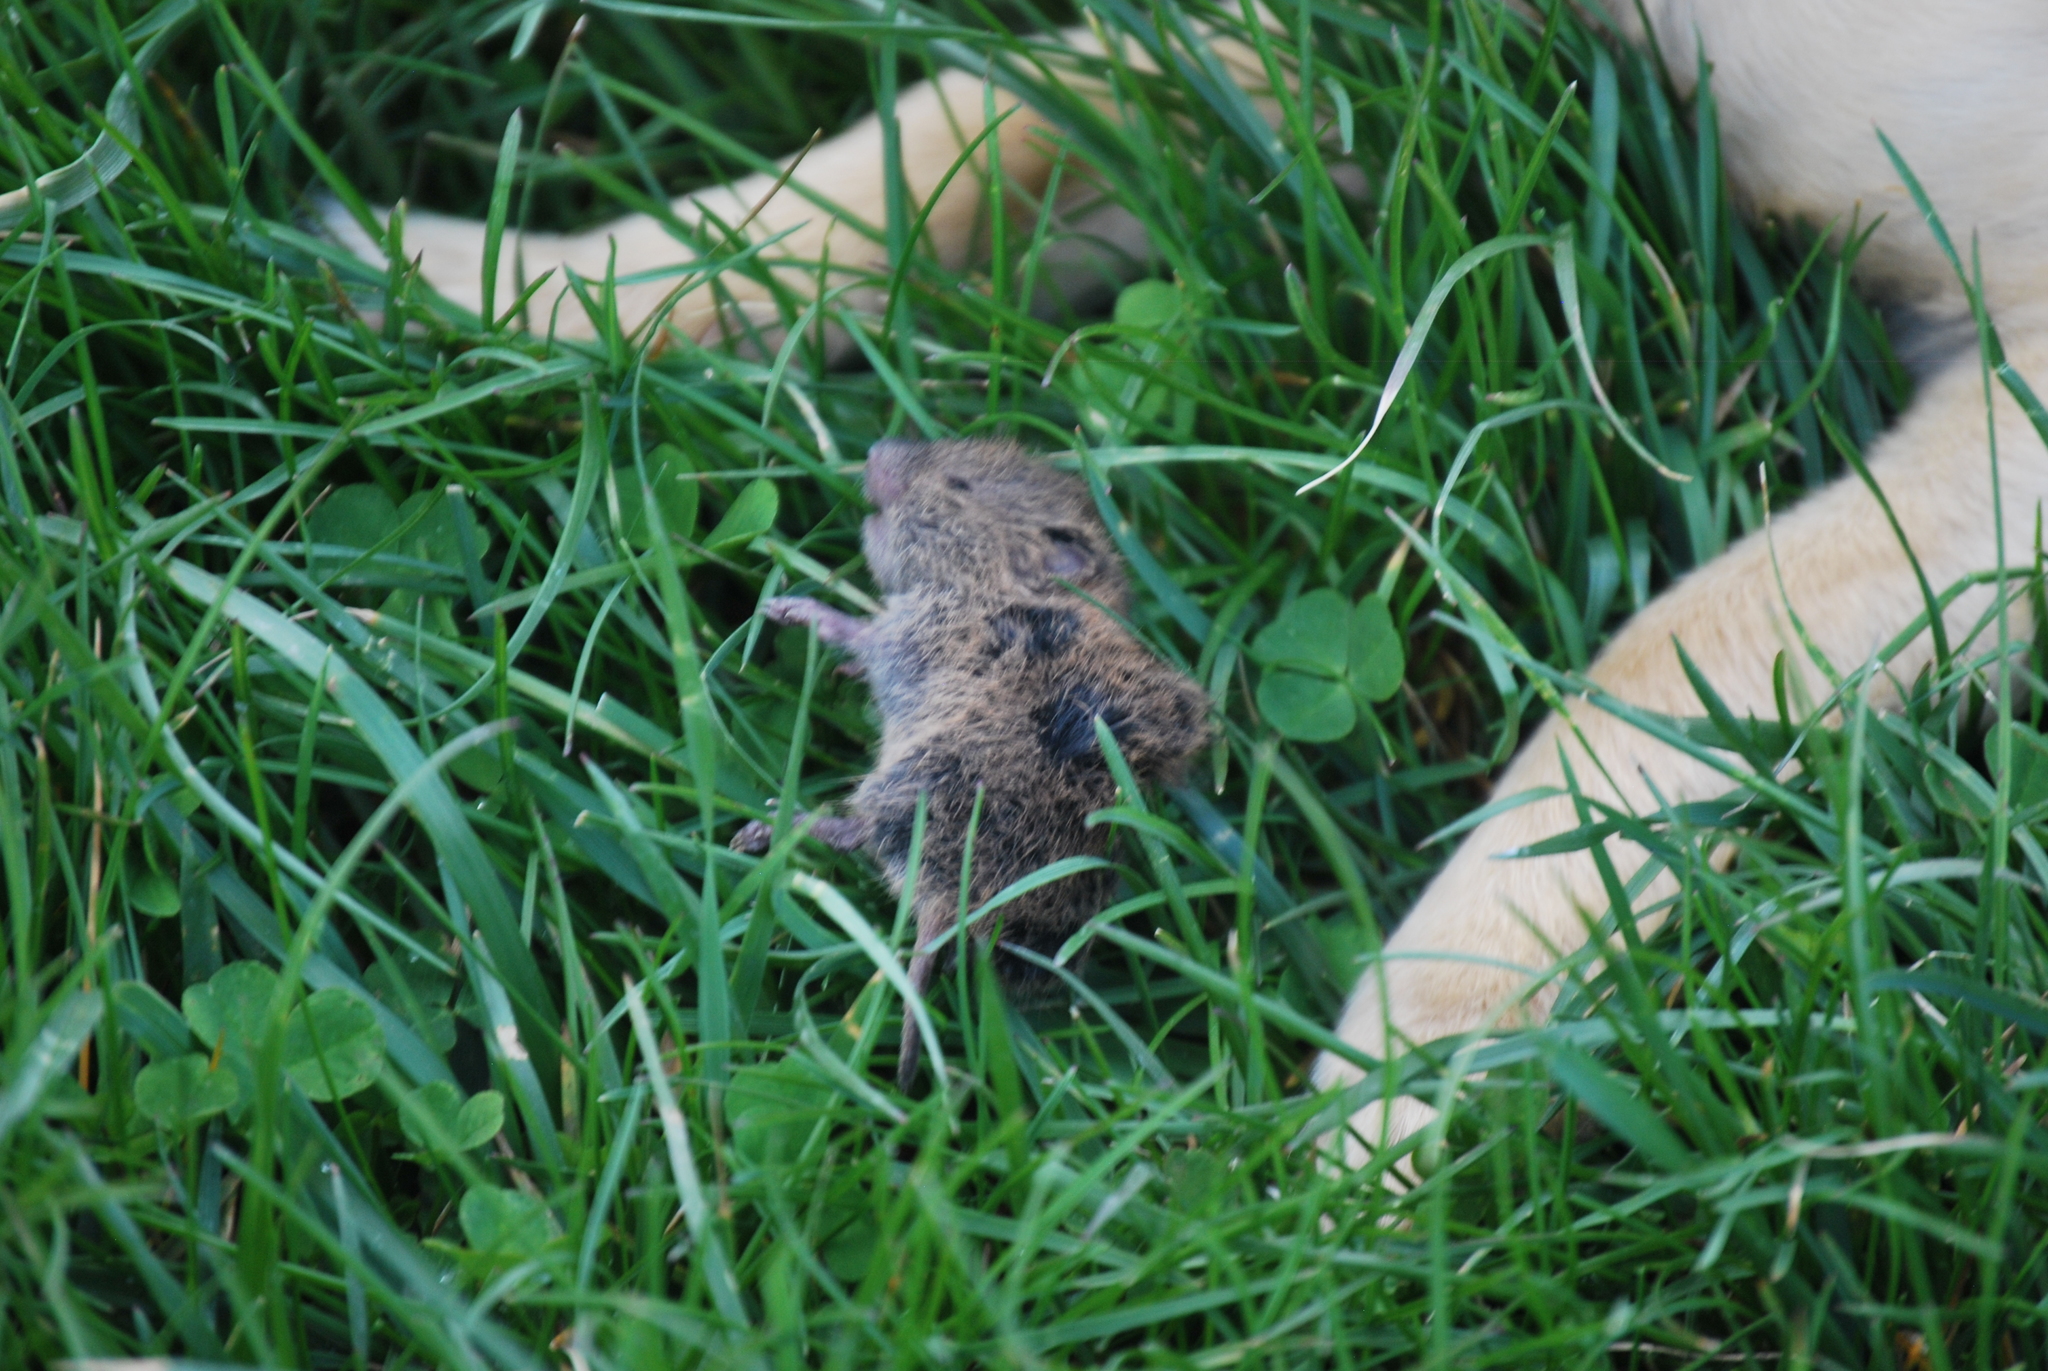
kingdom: Animalia
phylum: Chordata
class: Mammalia
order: Rodentia
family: Cricetidae
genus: Microtus
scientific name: Microtus pennsylvanicus
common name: Meadow vole
